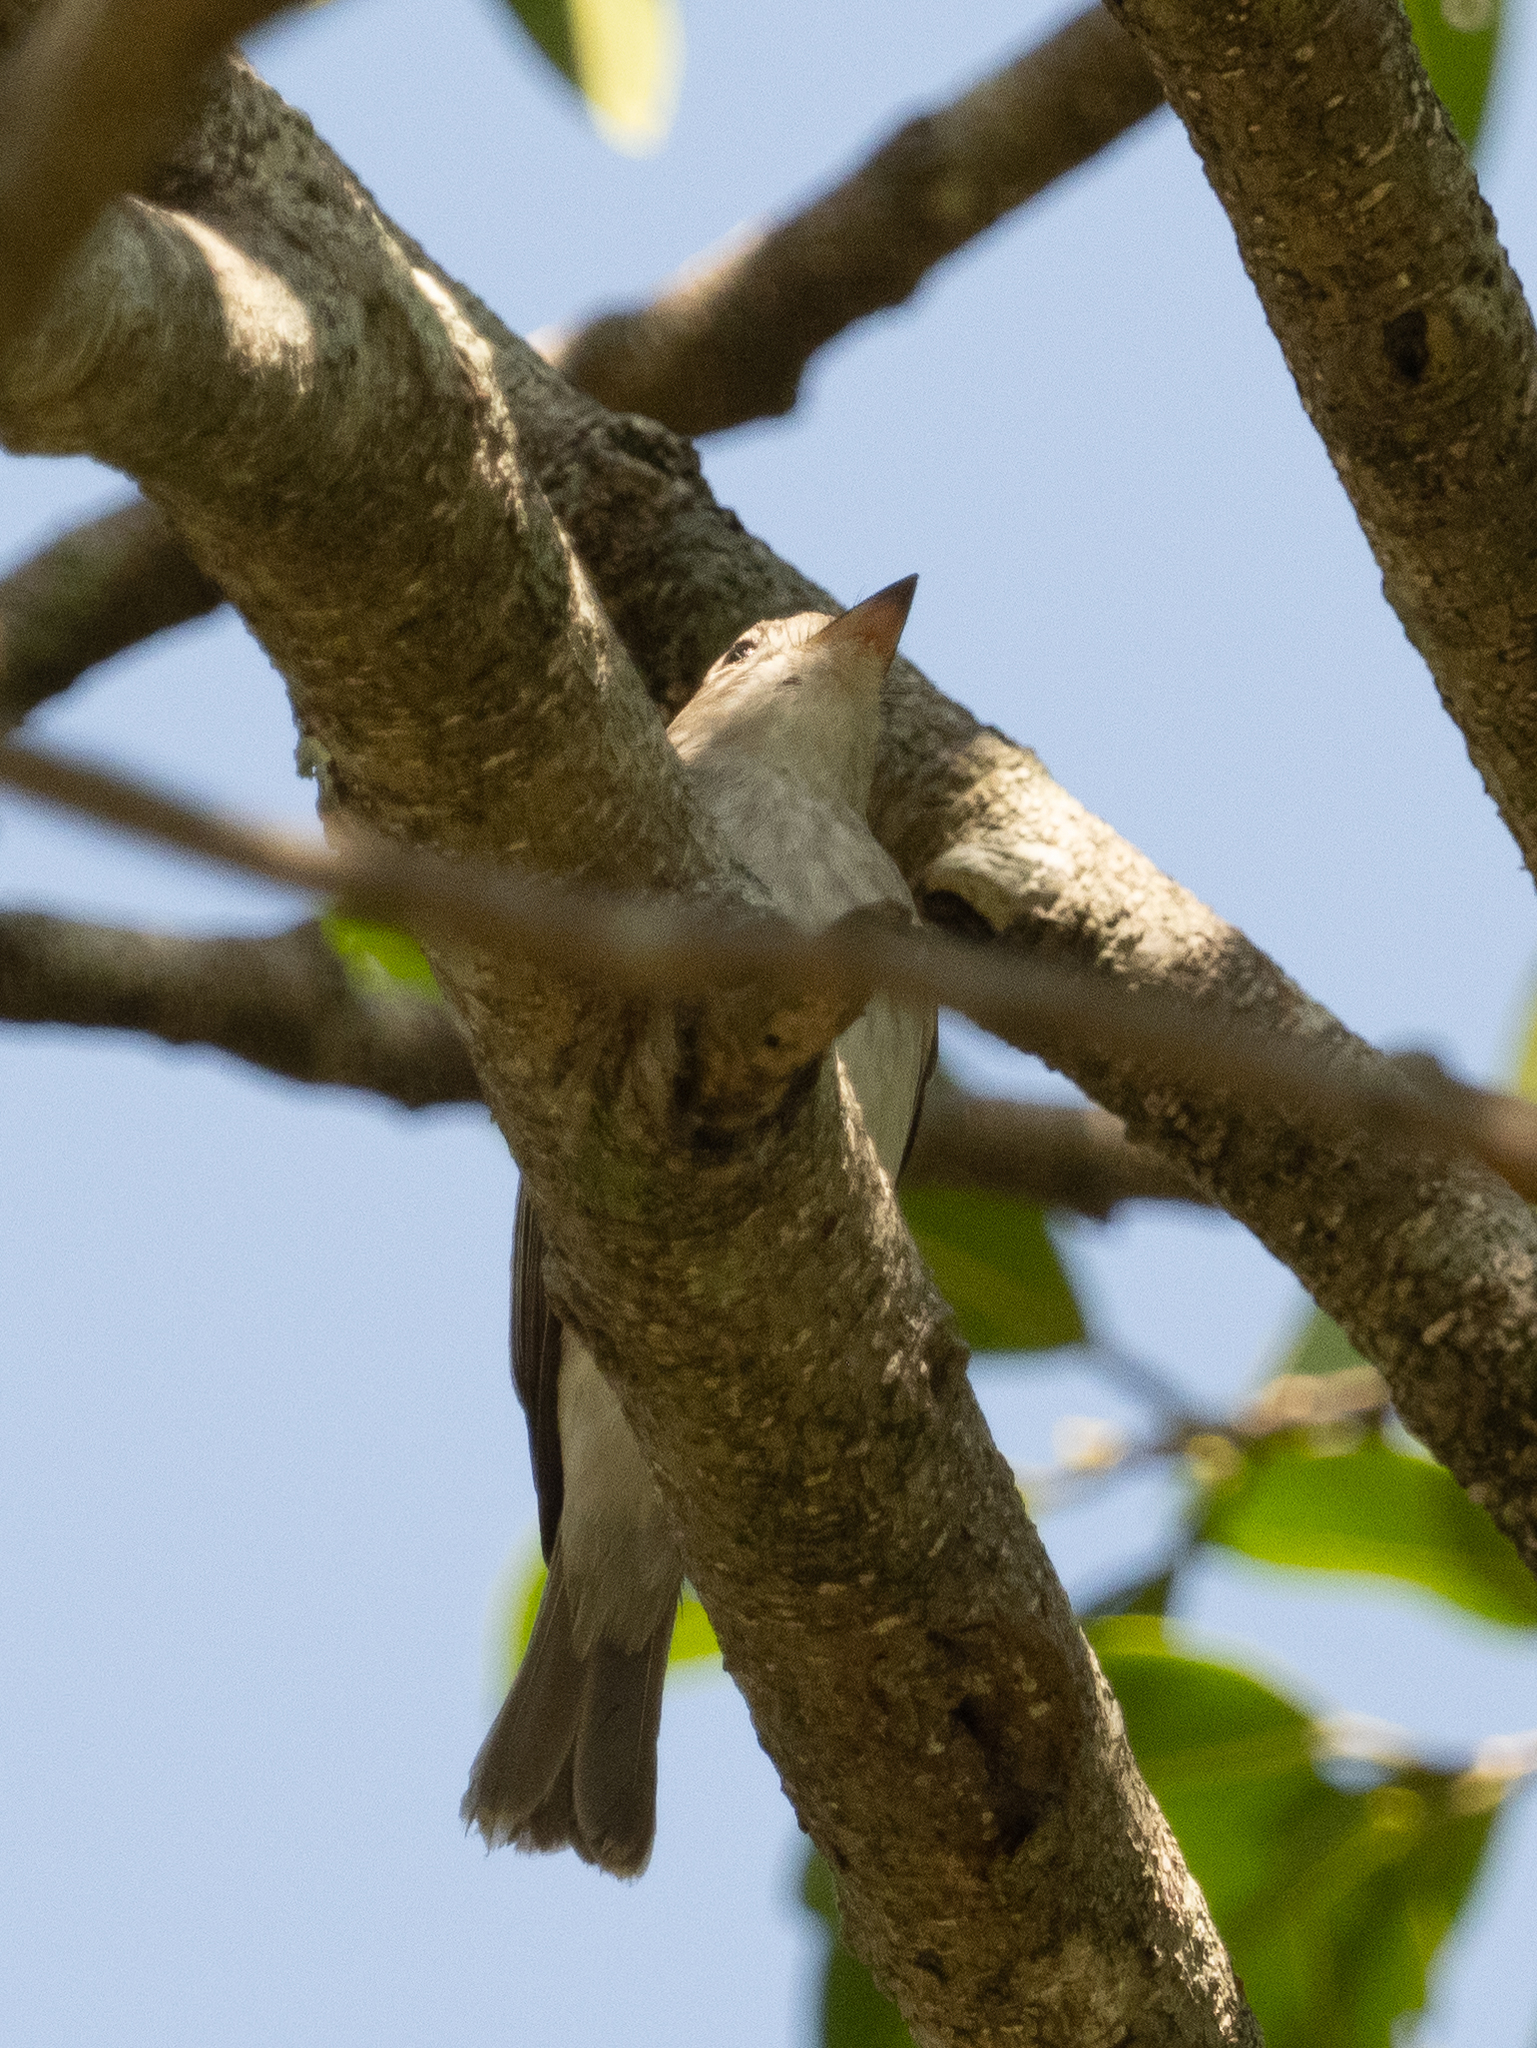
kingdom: Animalia
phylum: Chordata
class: Aves
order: Passeriformes
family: Muscicapidae
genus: Muscicapa
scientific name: Muscicapa latirostris
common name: Asian brown flycatcher
